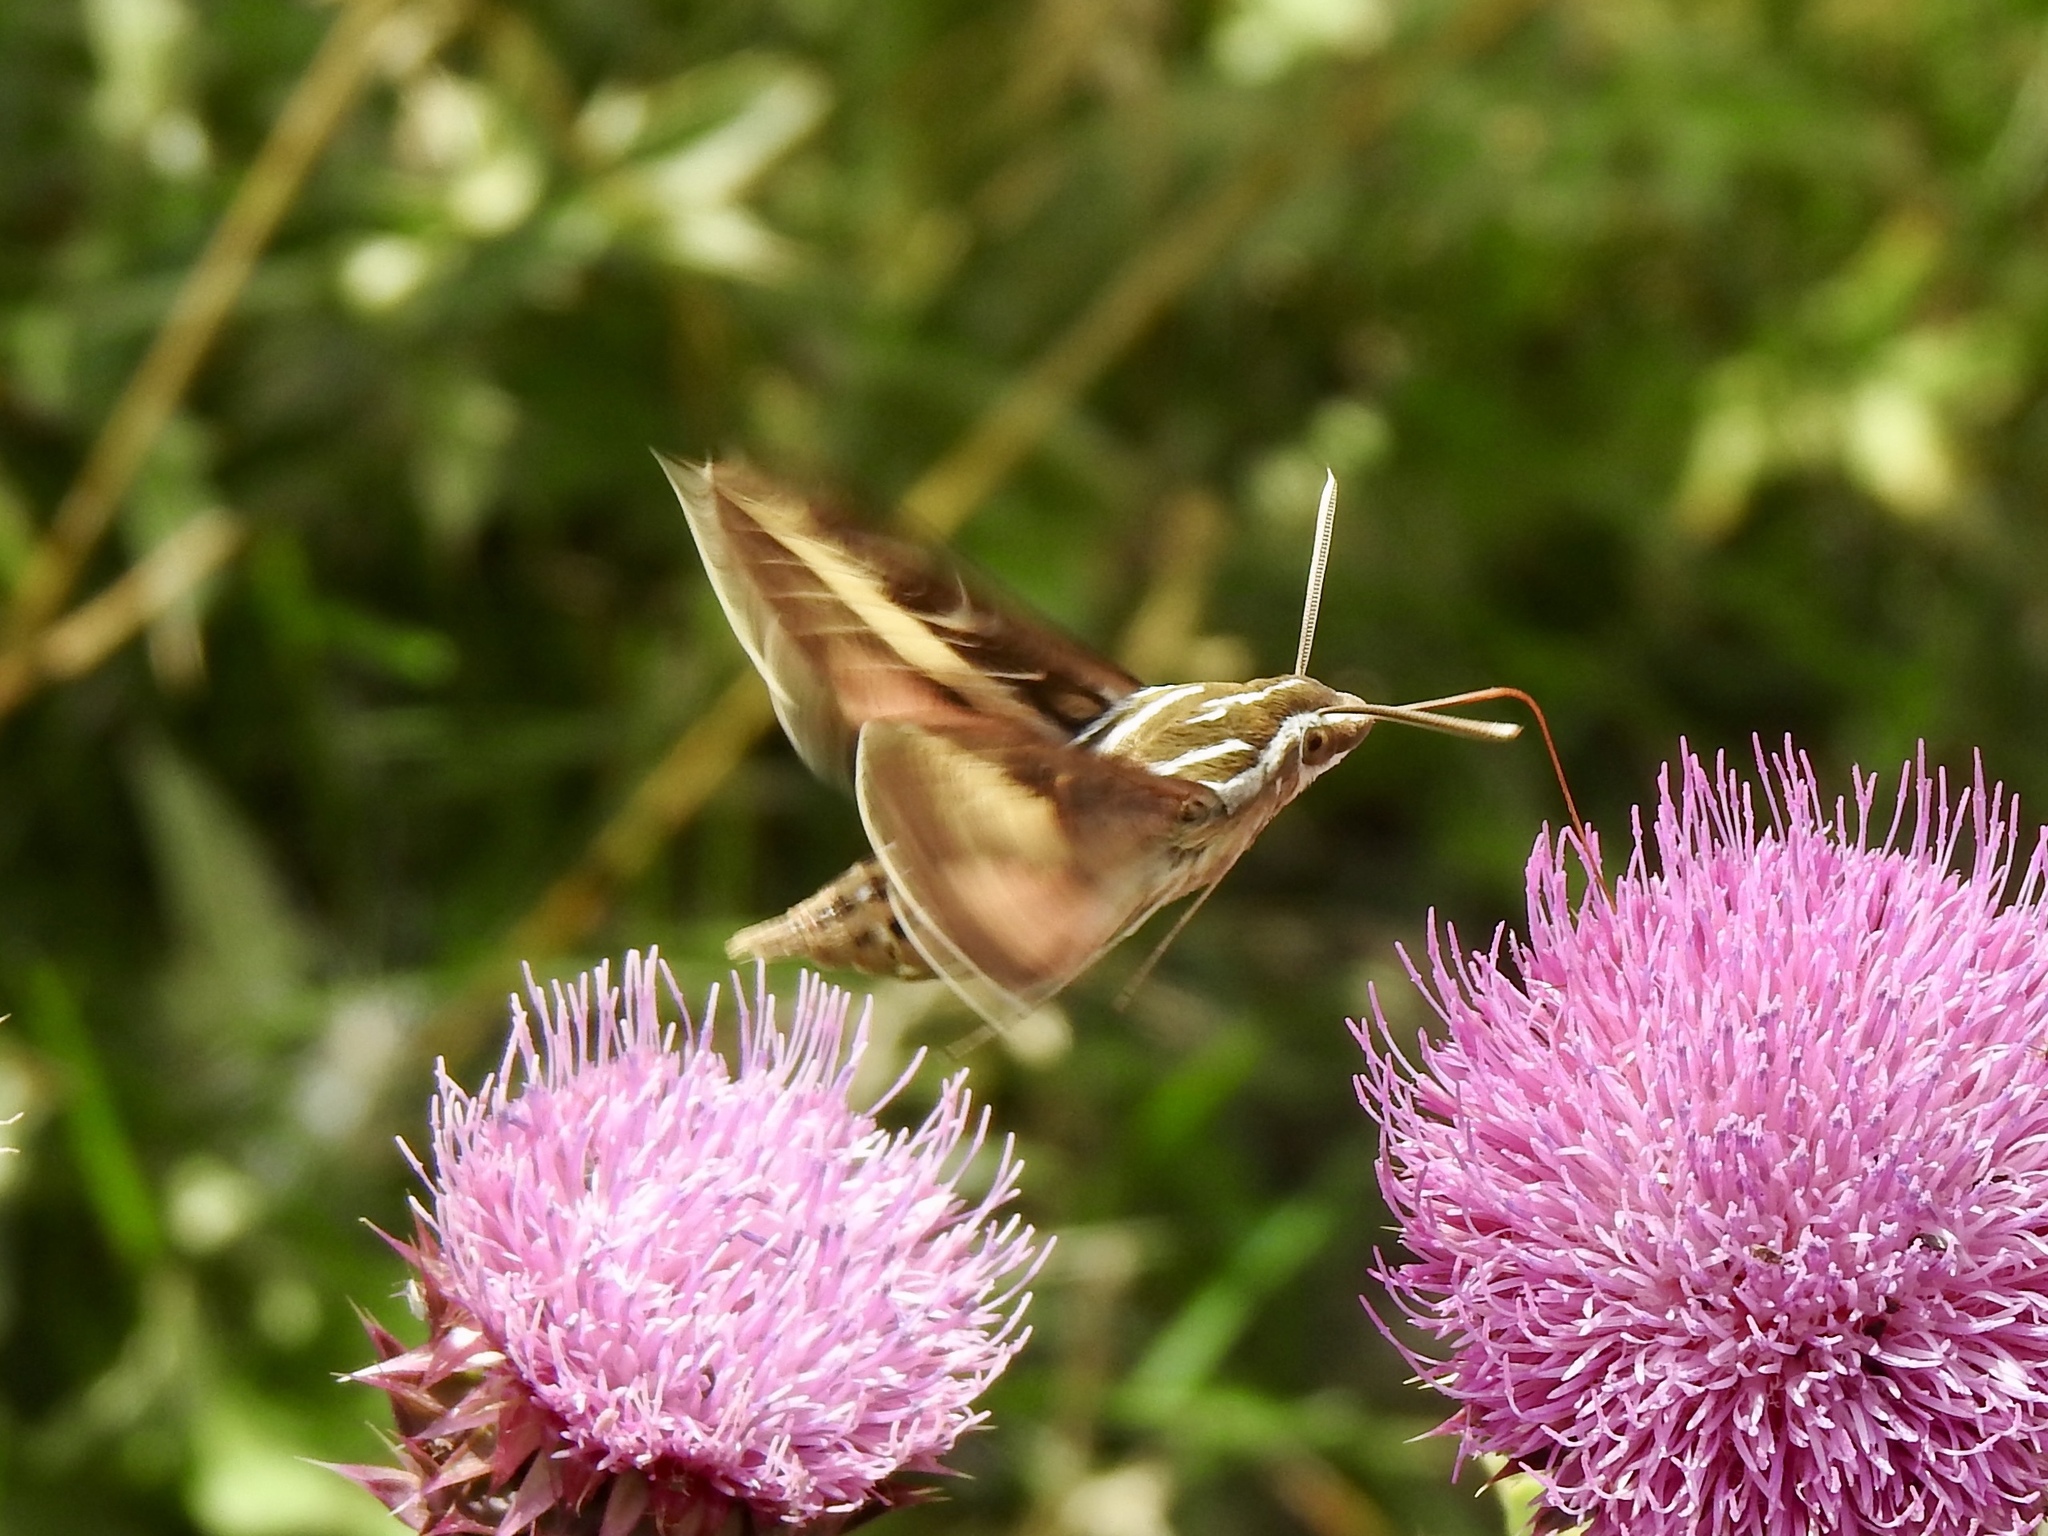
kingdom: Animalia
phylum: Arthropoda
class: Insecta
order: Lepidoptera
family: Sphingidae
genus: Hyles
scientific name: Hyles lineata
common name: White-lined sphinx
